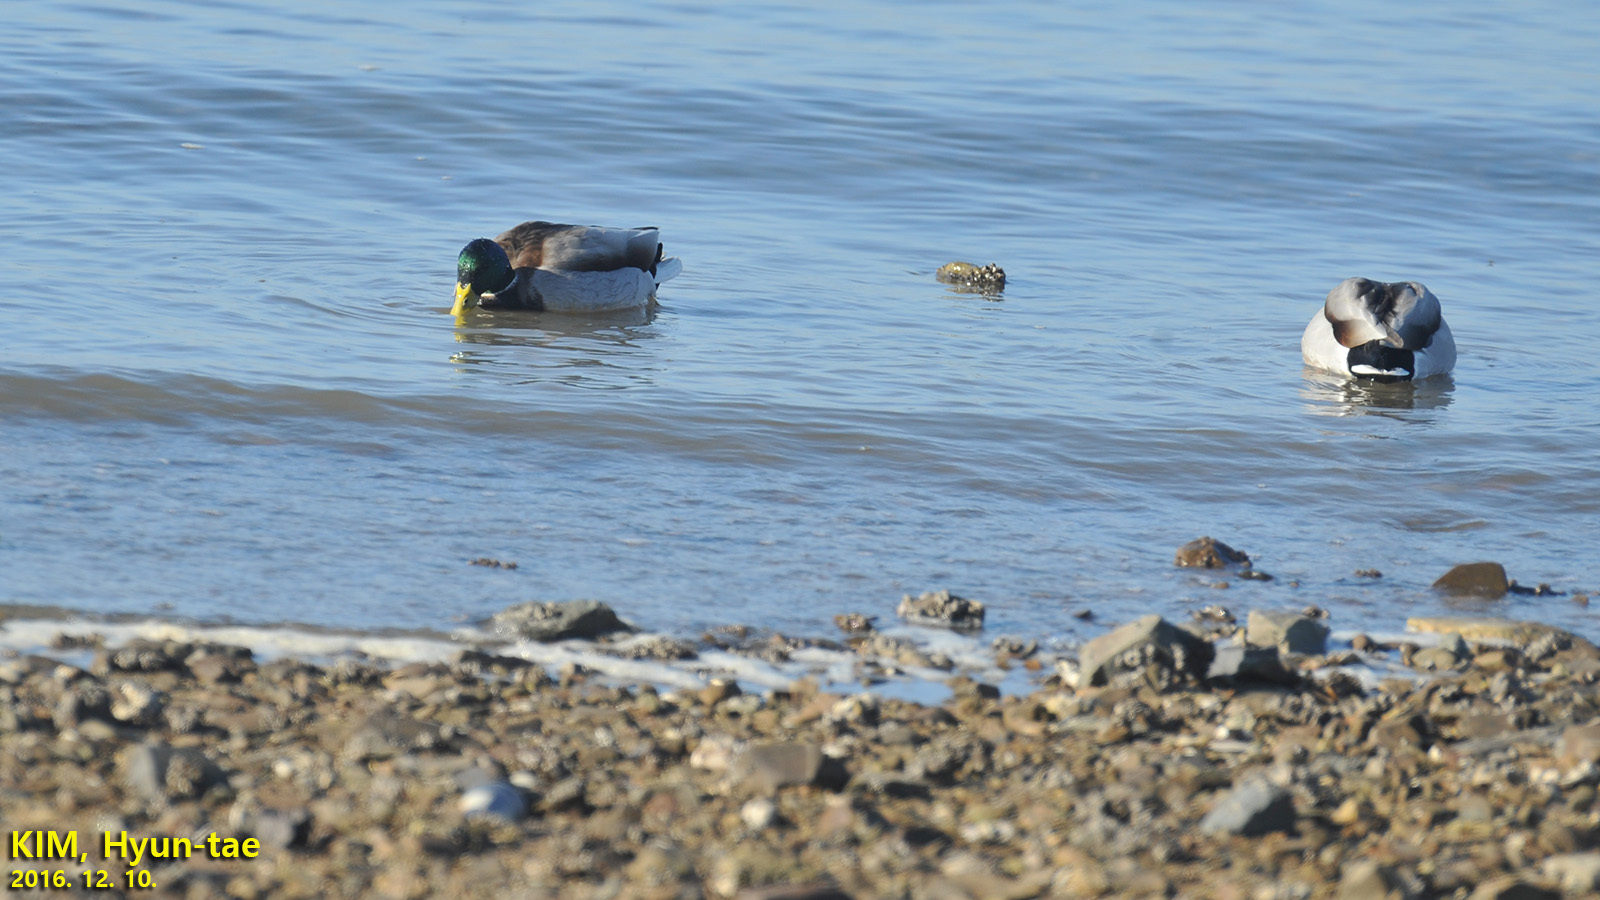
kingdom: Animalia
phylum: Chordata
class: Aves
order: Anseriformes
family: Anatidae
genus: Anas
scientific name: Anas platyrhynchos
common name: Mallard
